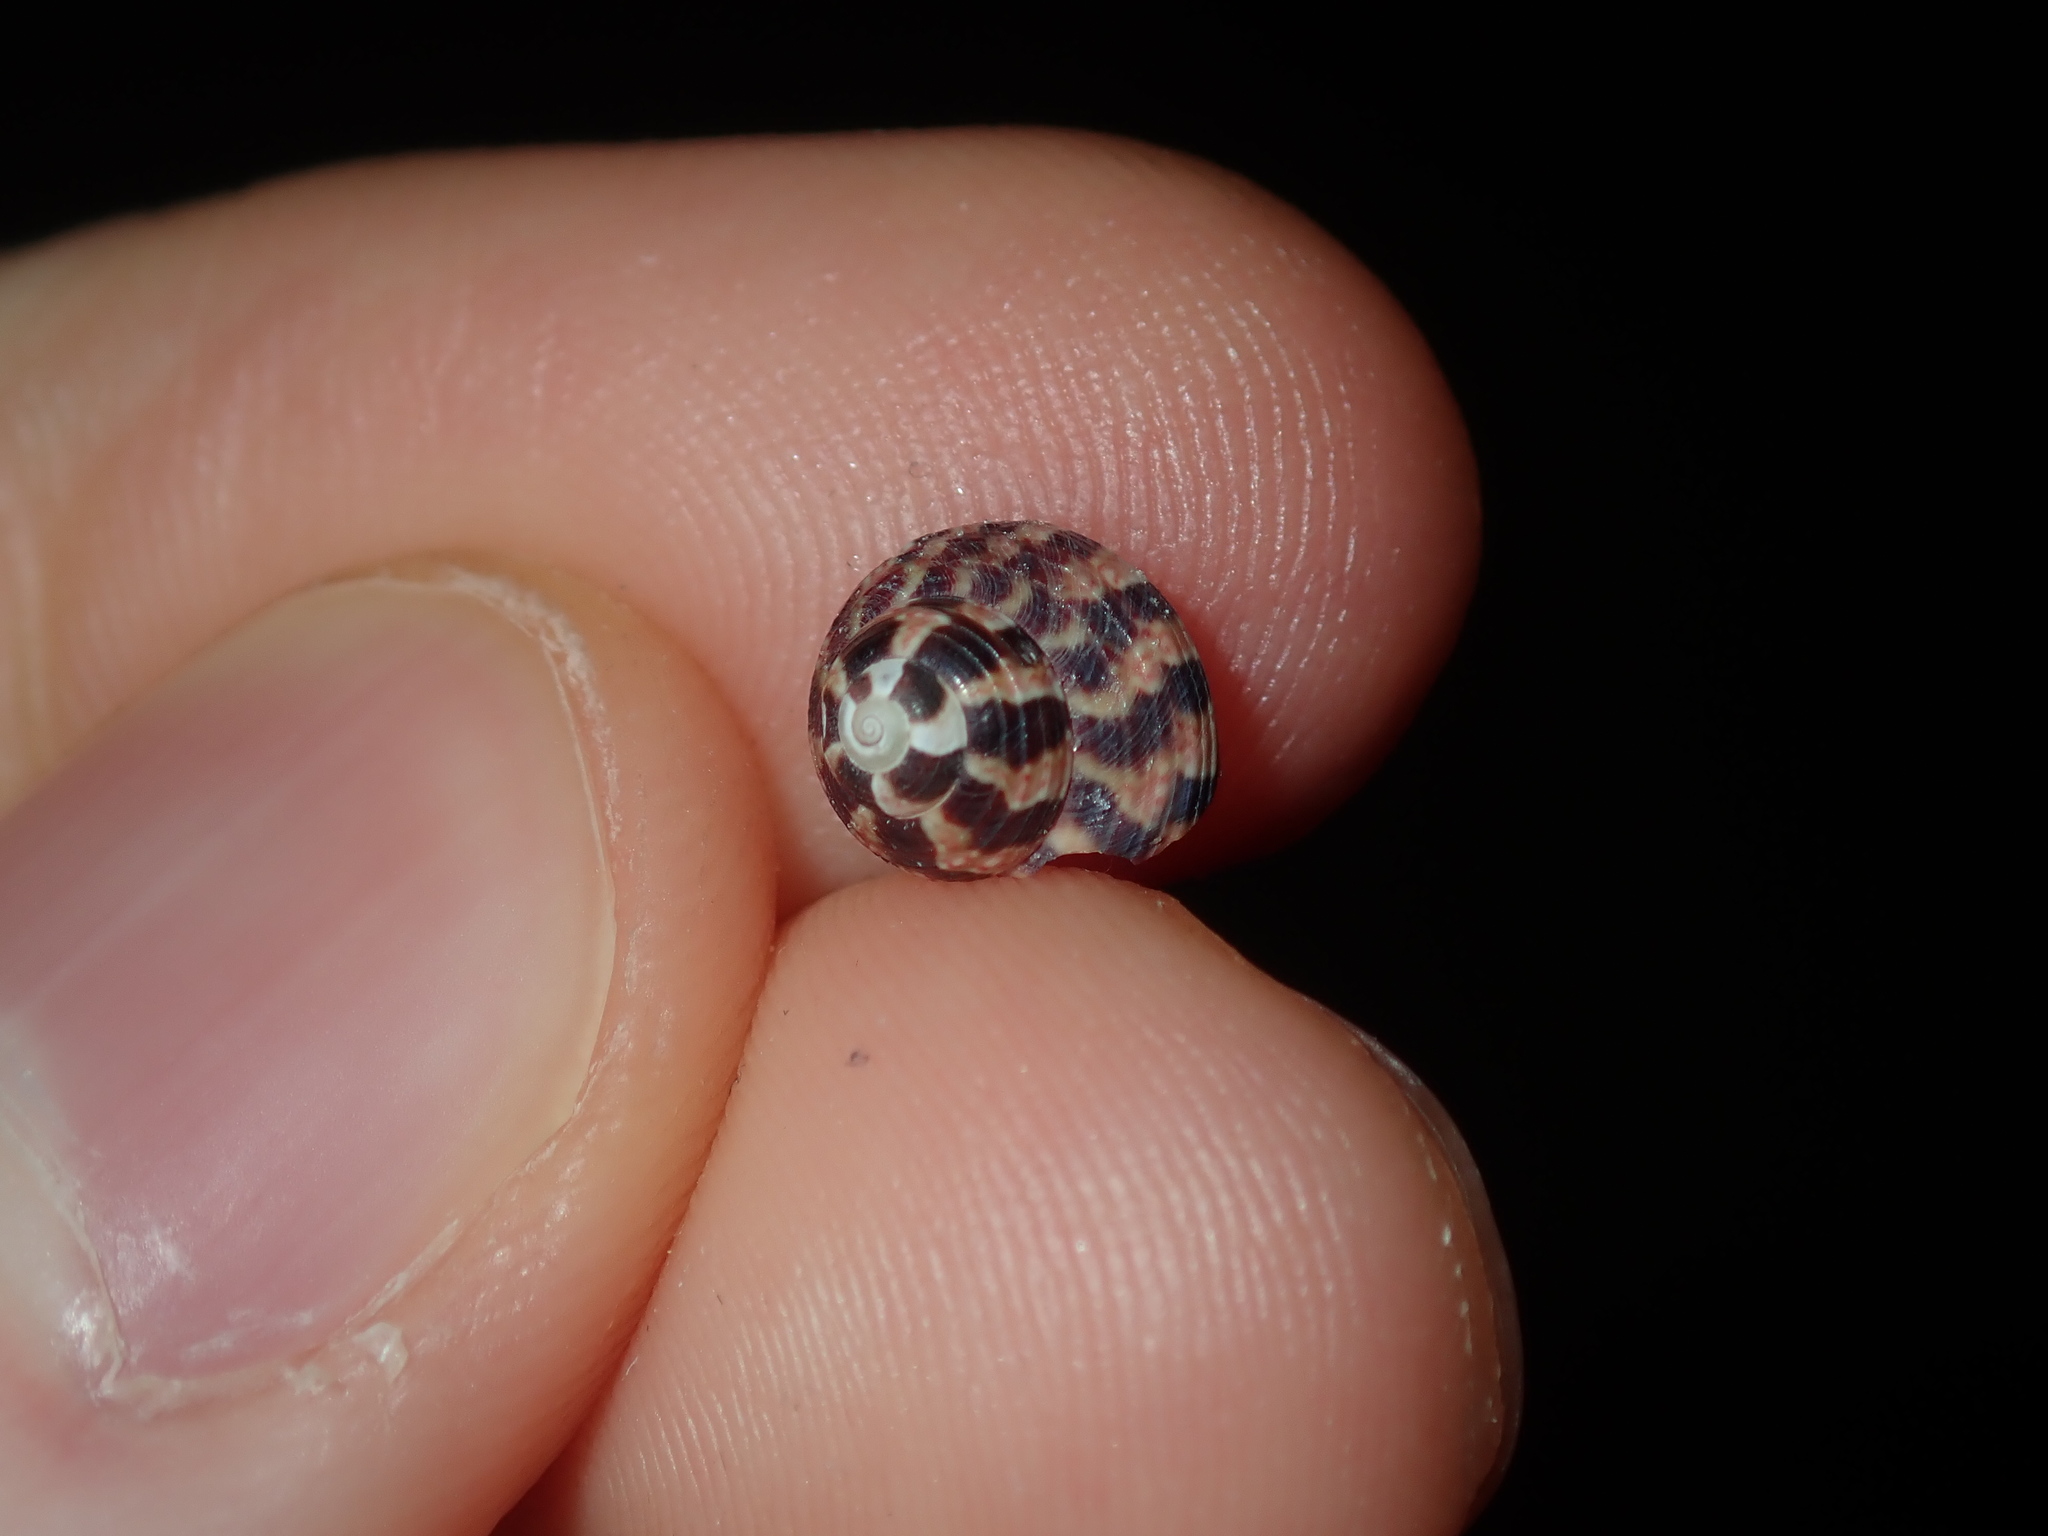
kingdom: Animalia
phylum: Mollusca
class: Gastropoda
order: Trochida
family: Trochidae
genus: Cantharidella
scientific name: Cantharidella picturata
